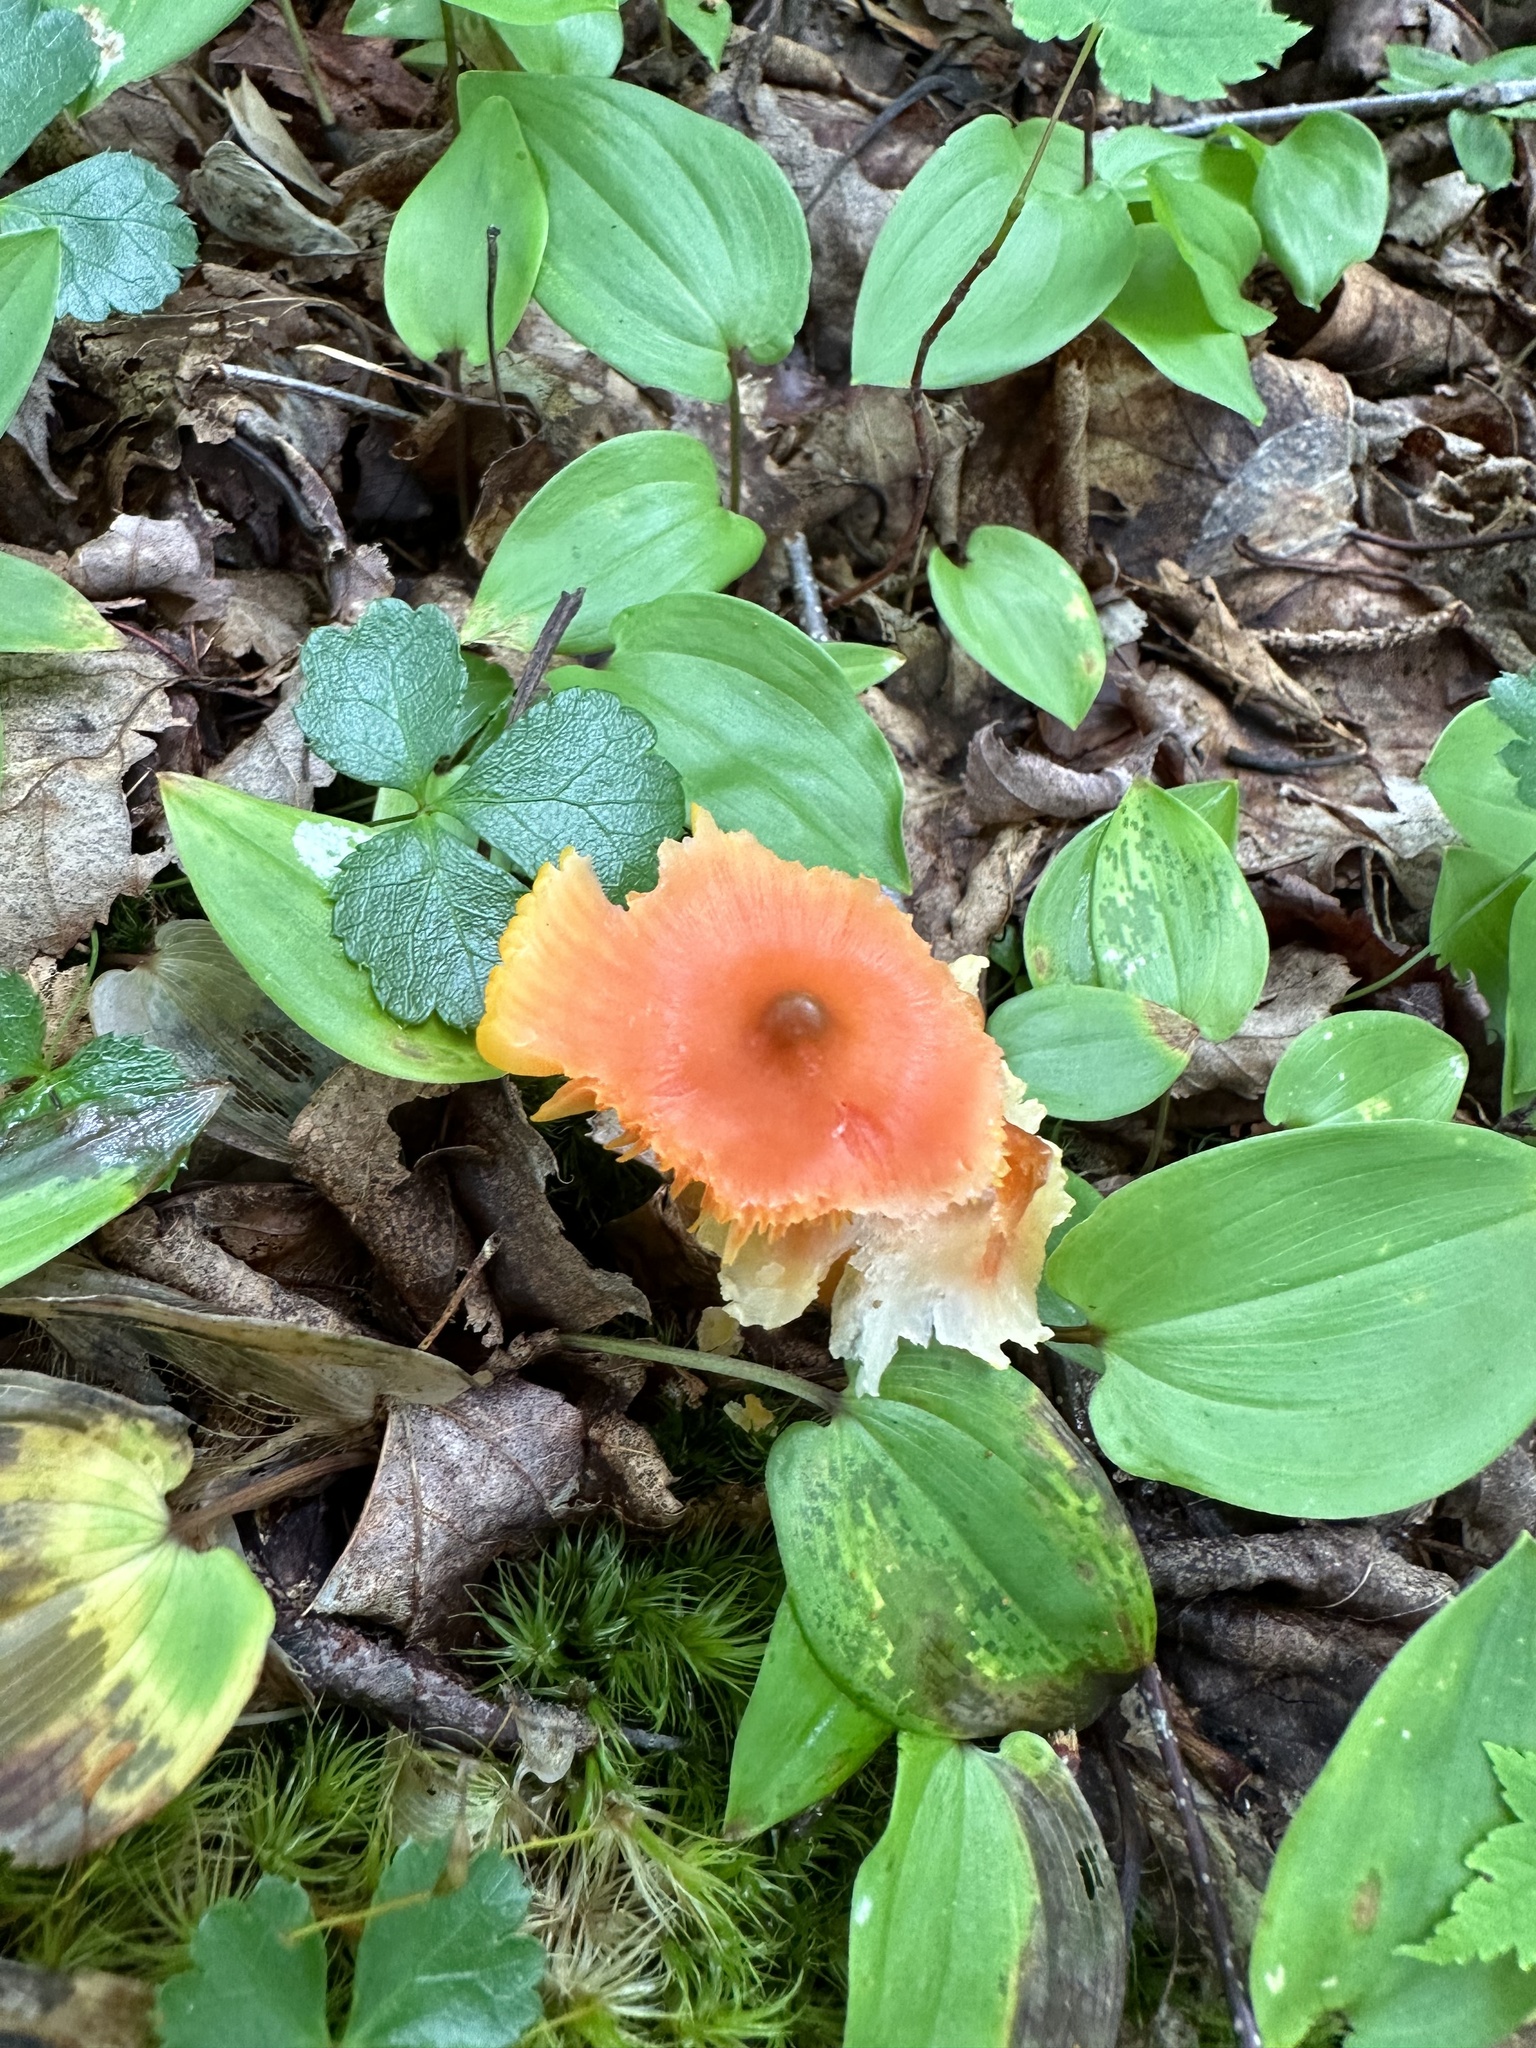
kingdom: Fungi
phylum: Basidiomycota
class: Agaricomycetes
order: Agaricales
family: Hygrophoraceae
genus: Humidicutis
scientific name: Humidicutis marginata
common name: Orange gilled waxcap
